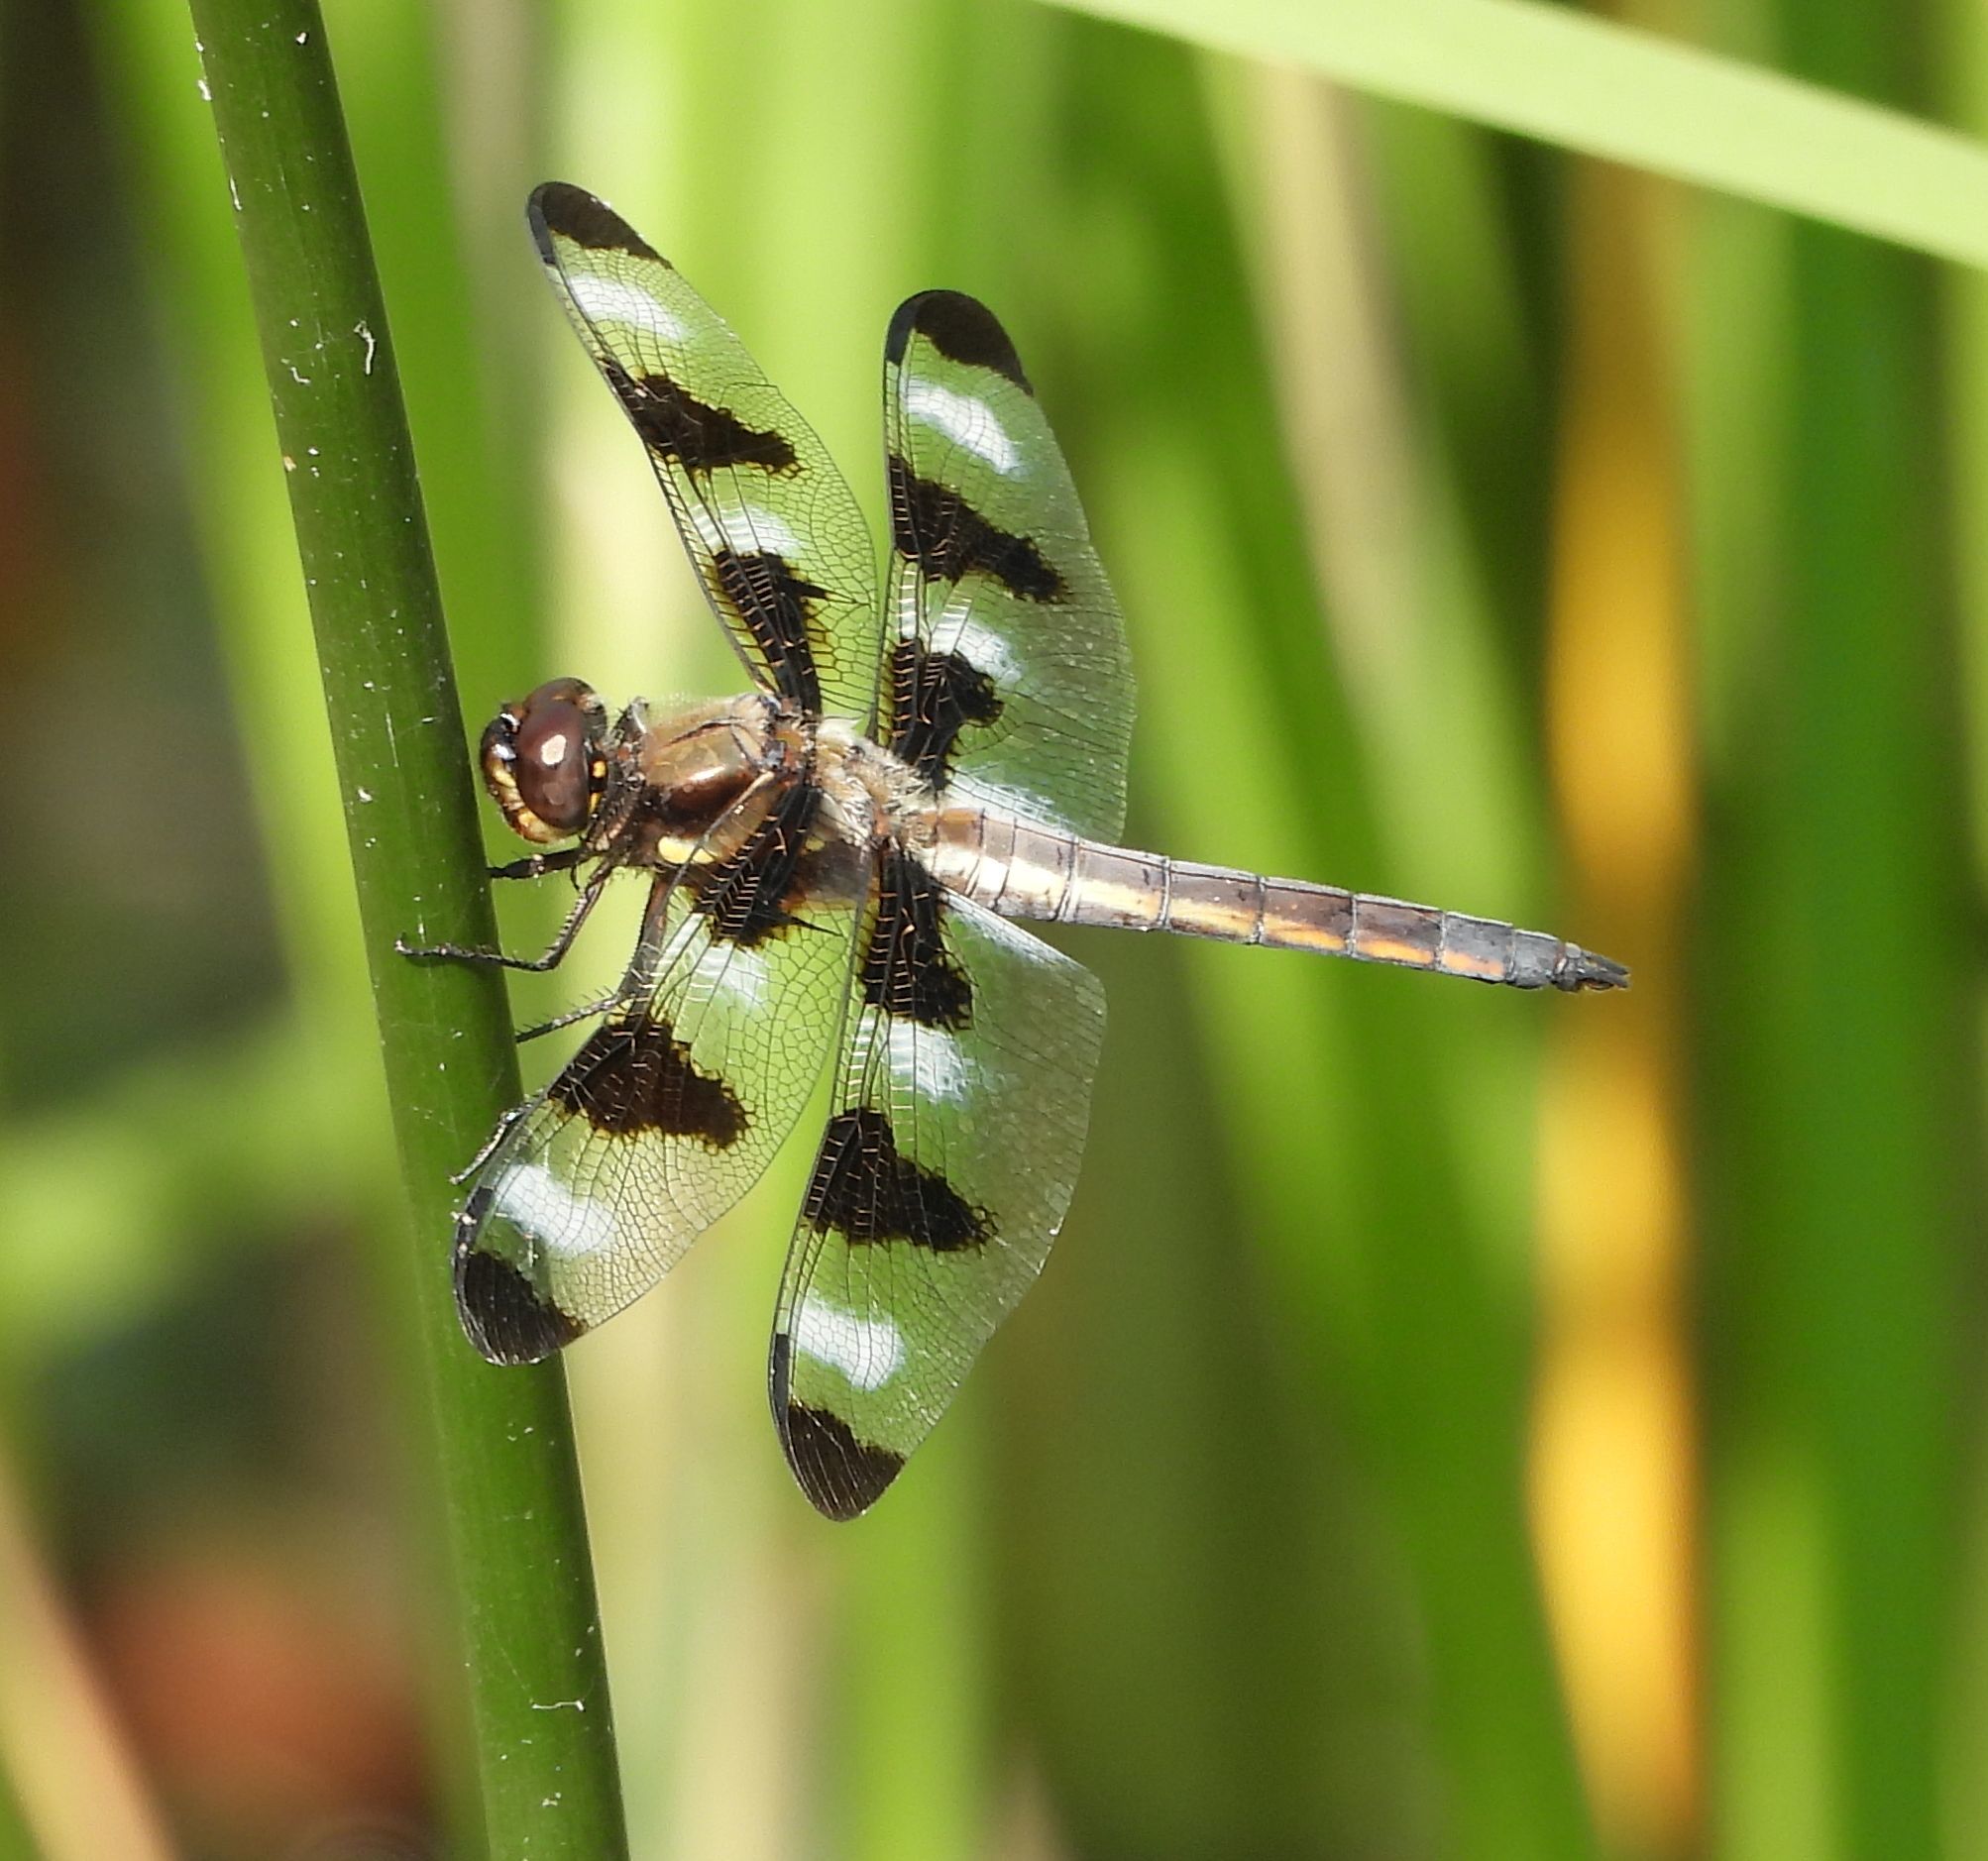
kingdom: Animalia
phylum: Arthropoda
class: Insecta
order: Odonata
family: Libellulidae
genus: Libellula
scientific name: Libellula pulchella
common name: Twelve-spotted skimmer
